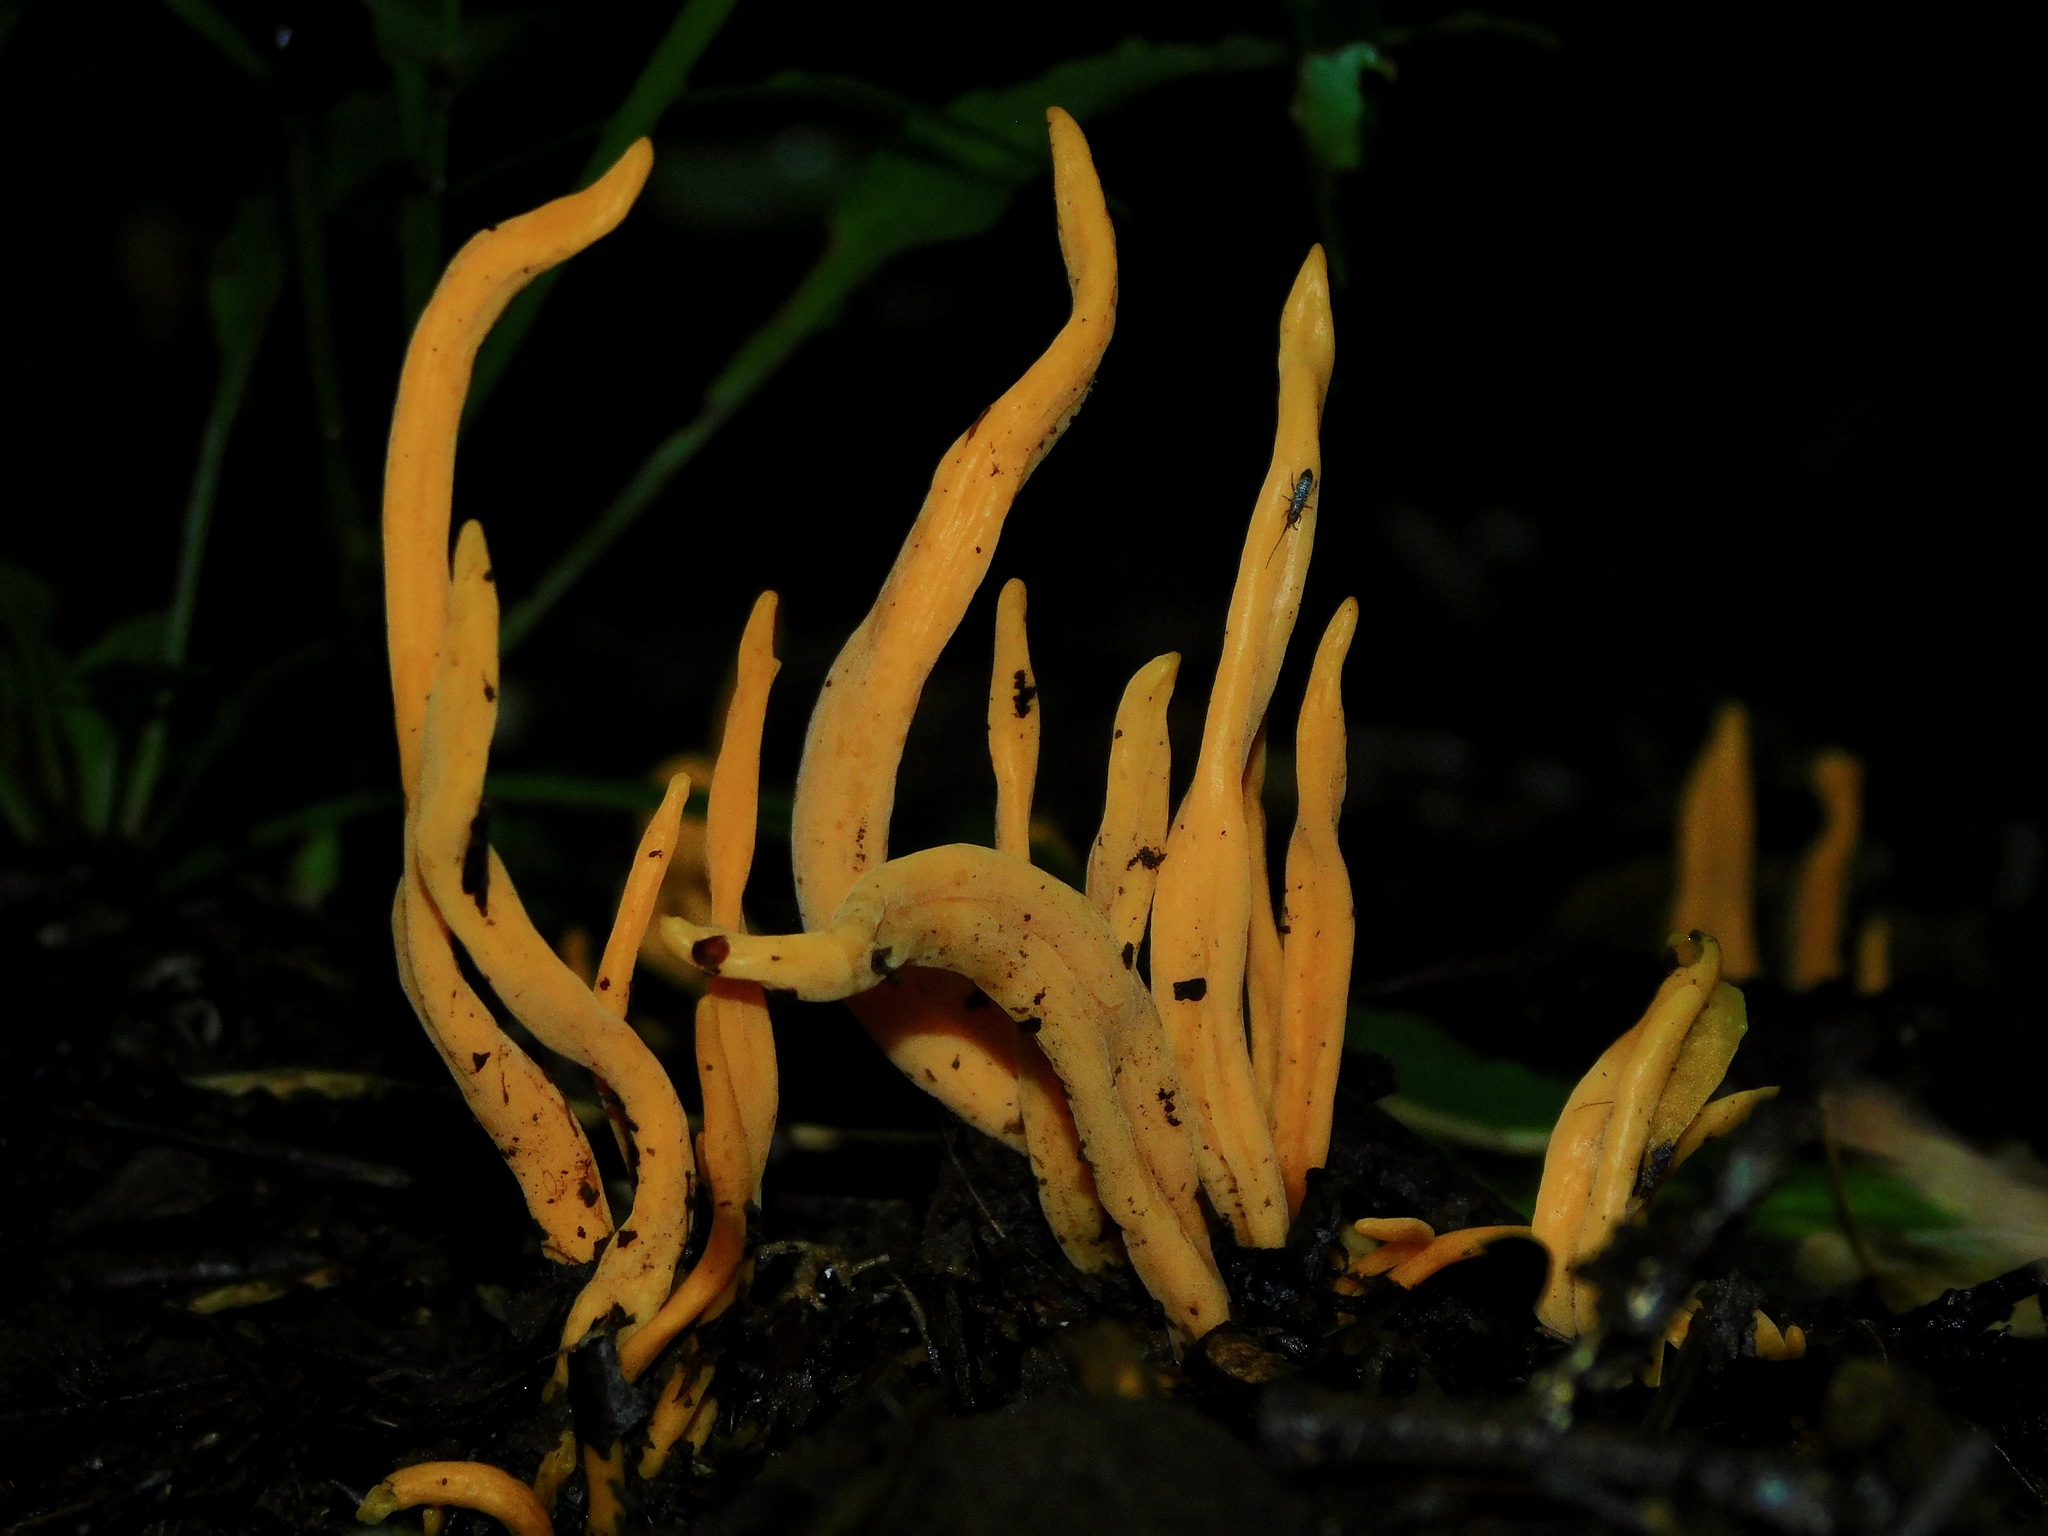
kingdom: Fungi
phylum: Basidiomycota
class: Agaricomycetes
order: Agaricales
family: Clavariaceae
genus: Clavulinopsis
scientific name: Clavulinopsis laeticolor
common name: Handsome club
